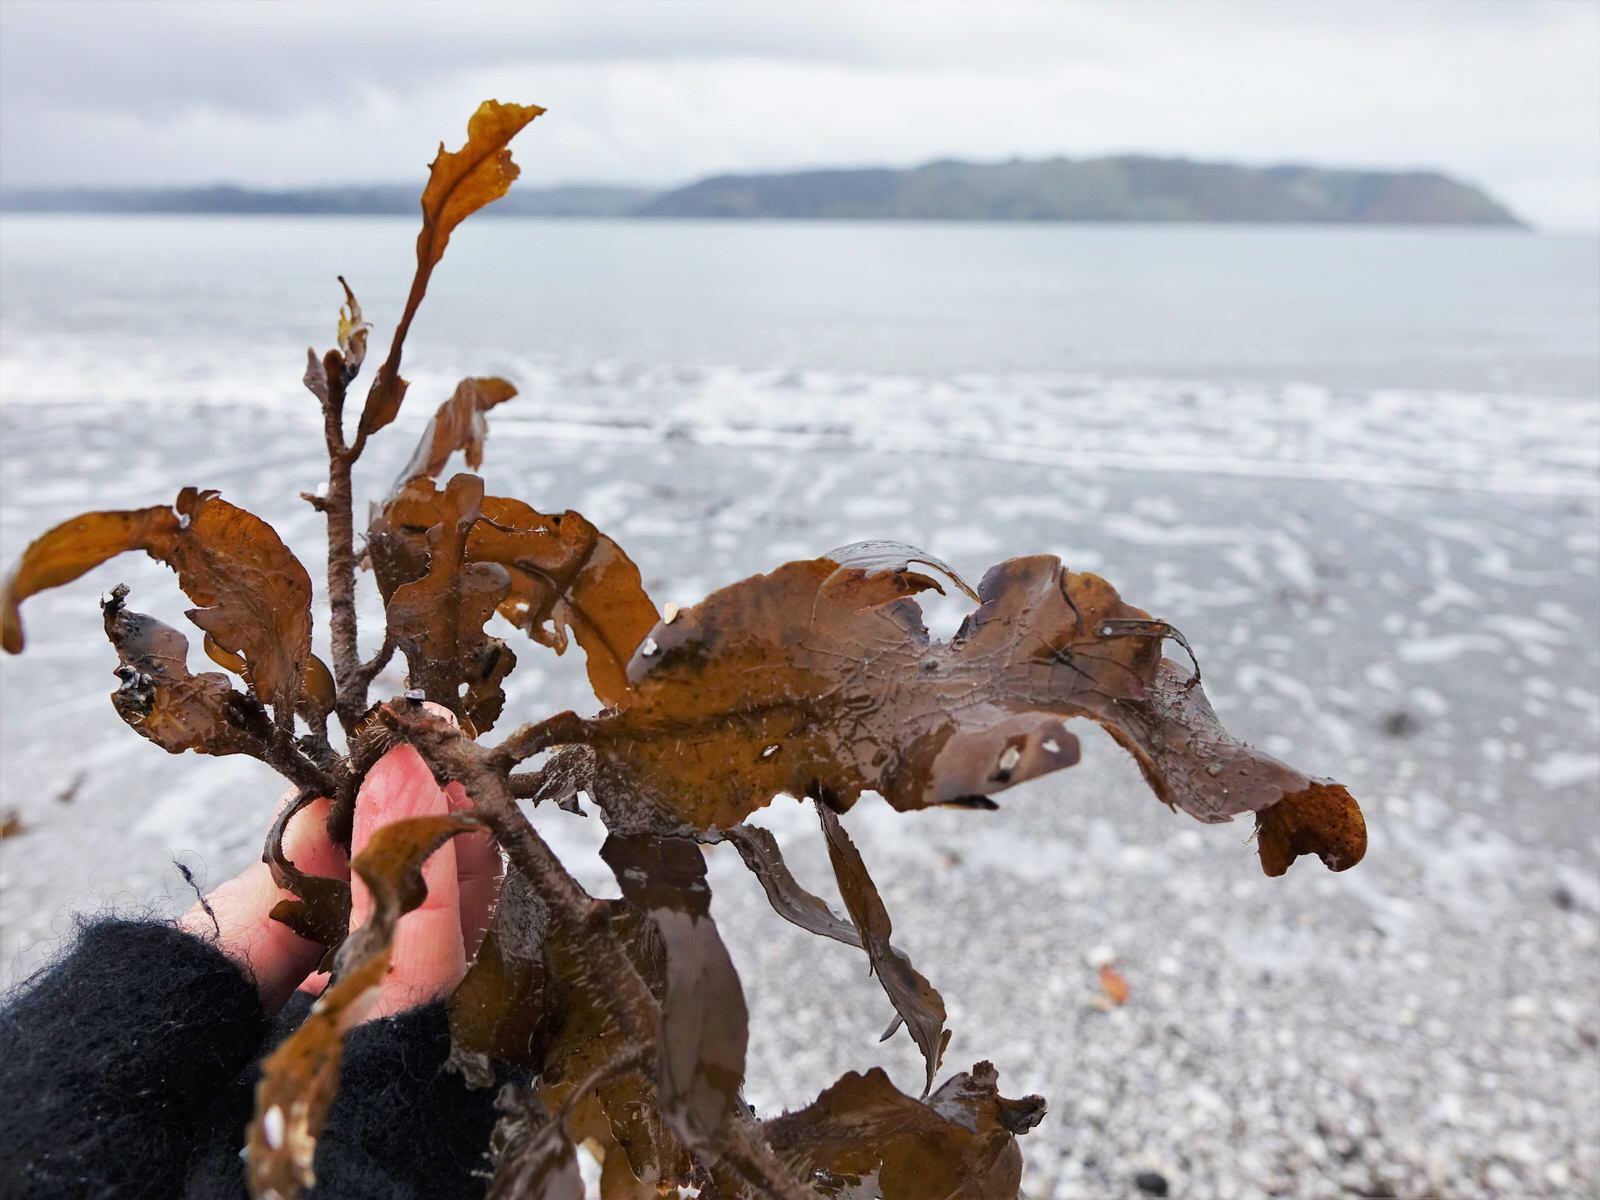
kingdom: Chromista
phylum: Ochrophyta
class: Phaeophyceae
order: Fucales
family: Sargassaceae
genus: Sargassum
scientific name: Sargassum sinclairii
